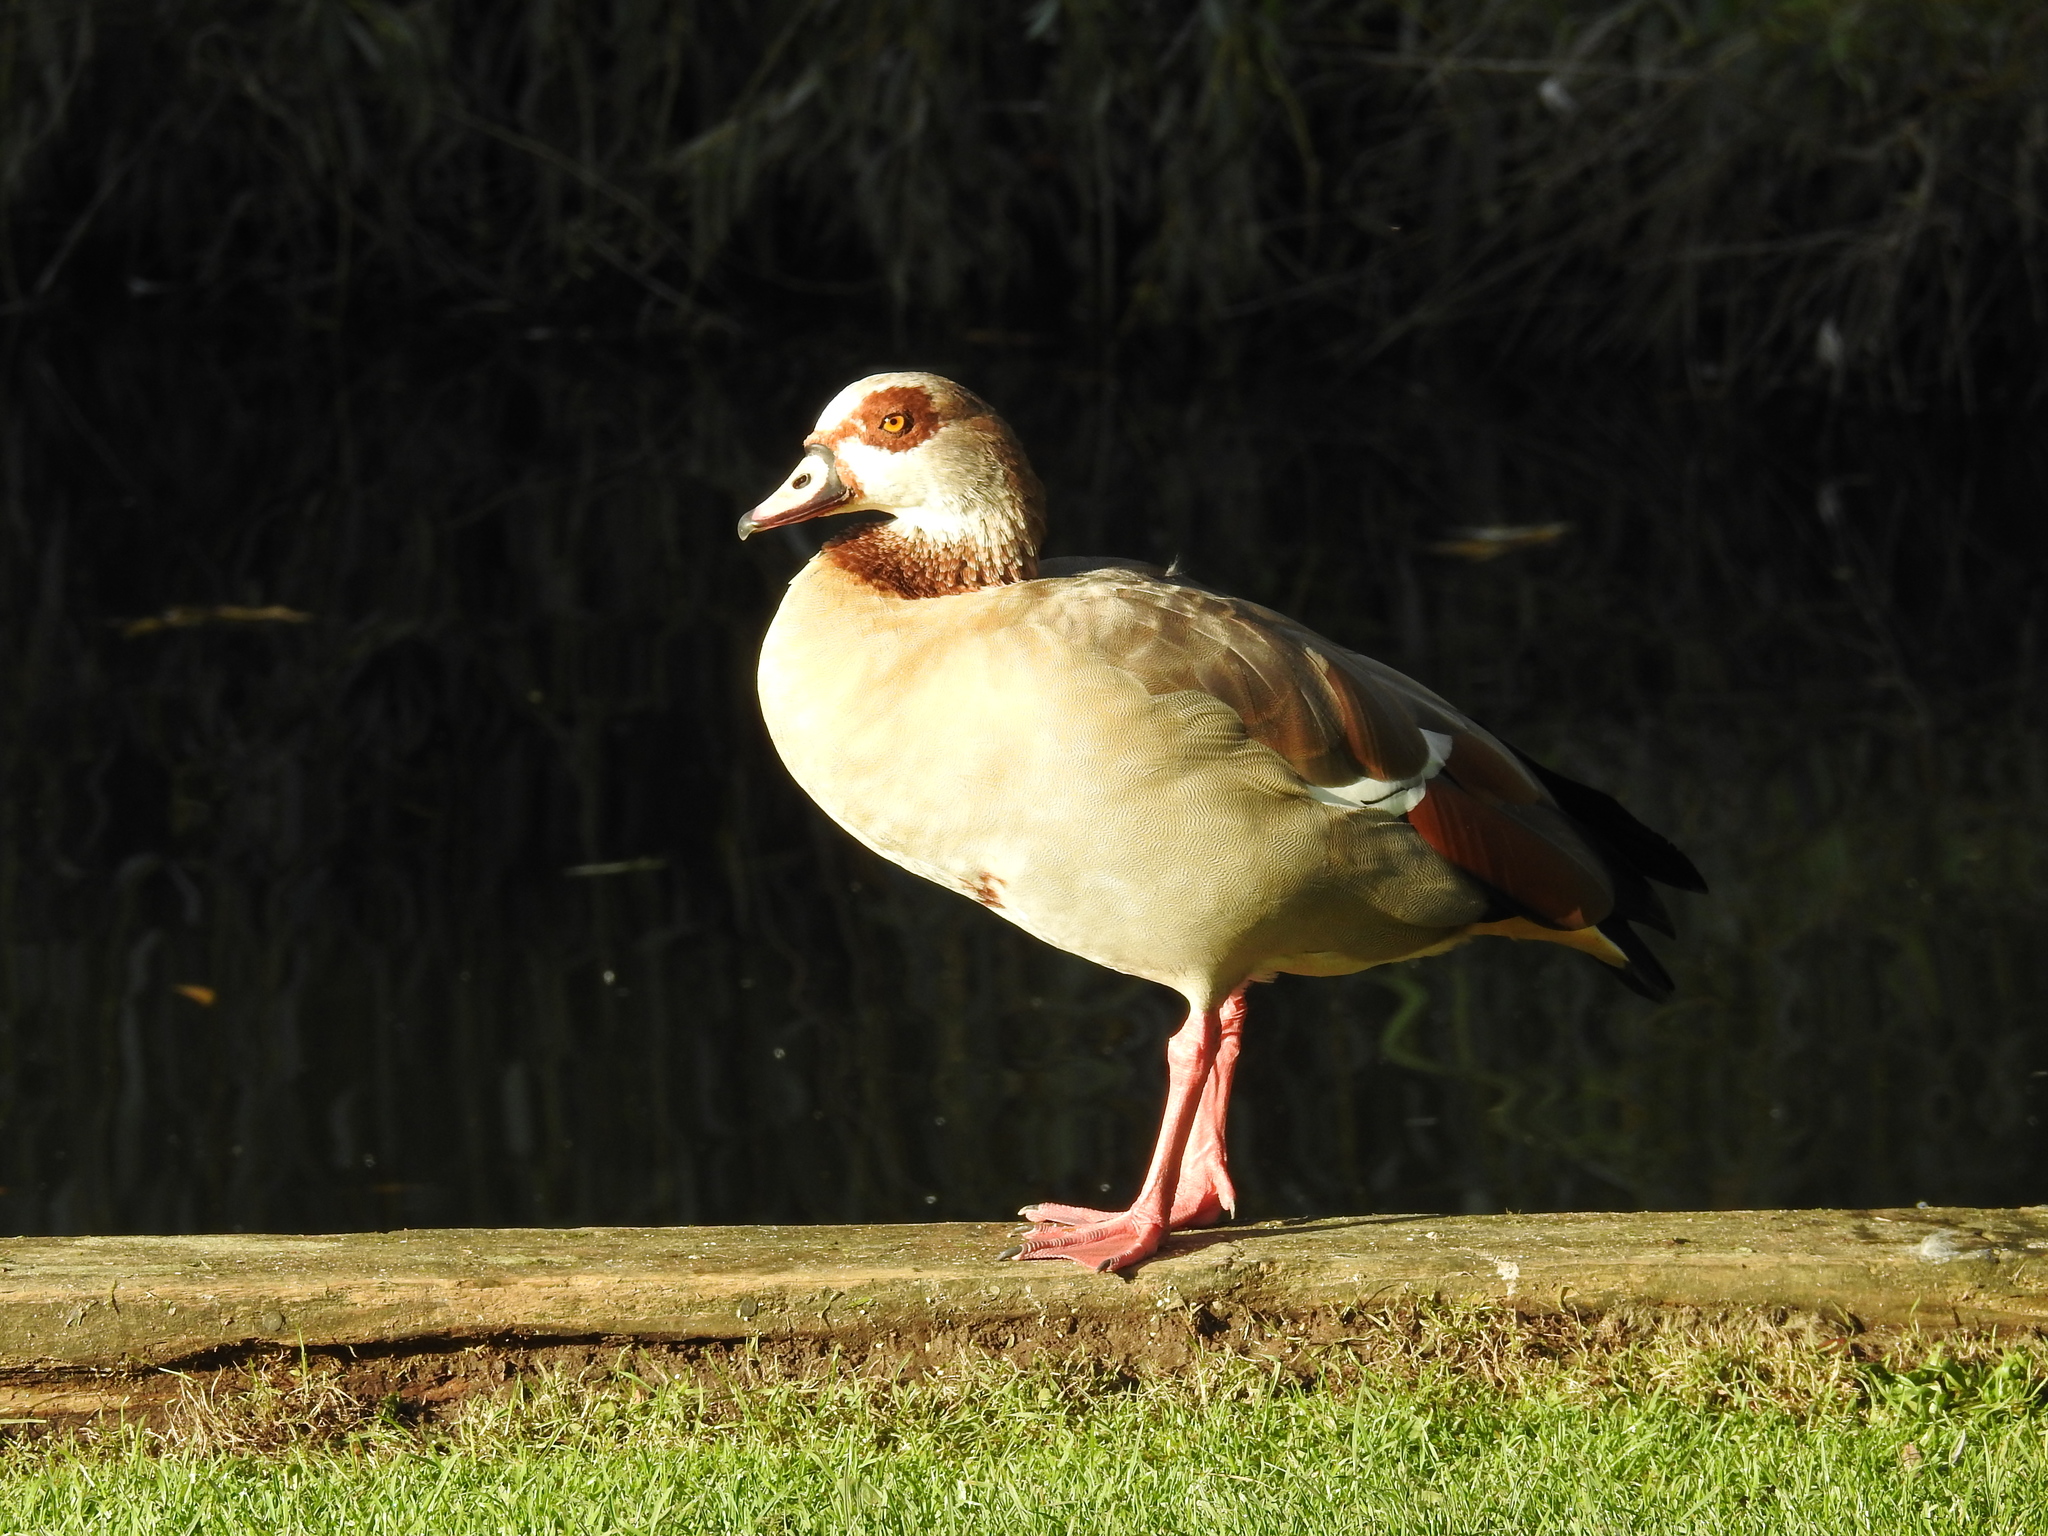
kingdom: Animalia
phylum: Chordata
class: Aves
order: Anseriformes
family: Anatidae
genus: Alopochen
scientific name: Alopochen aegyptiaca
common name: Egyptian goose
